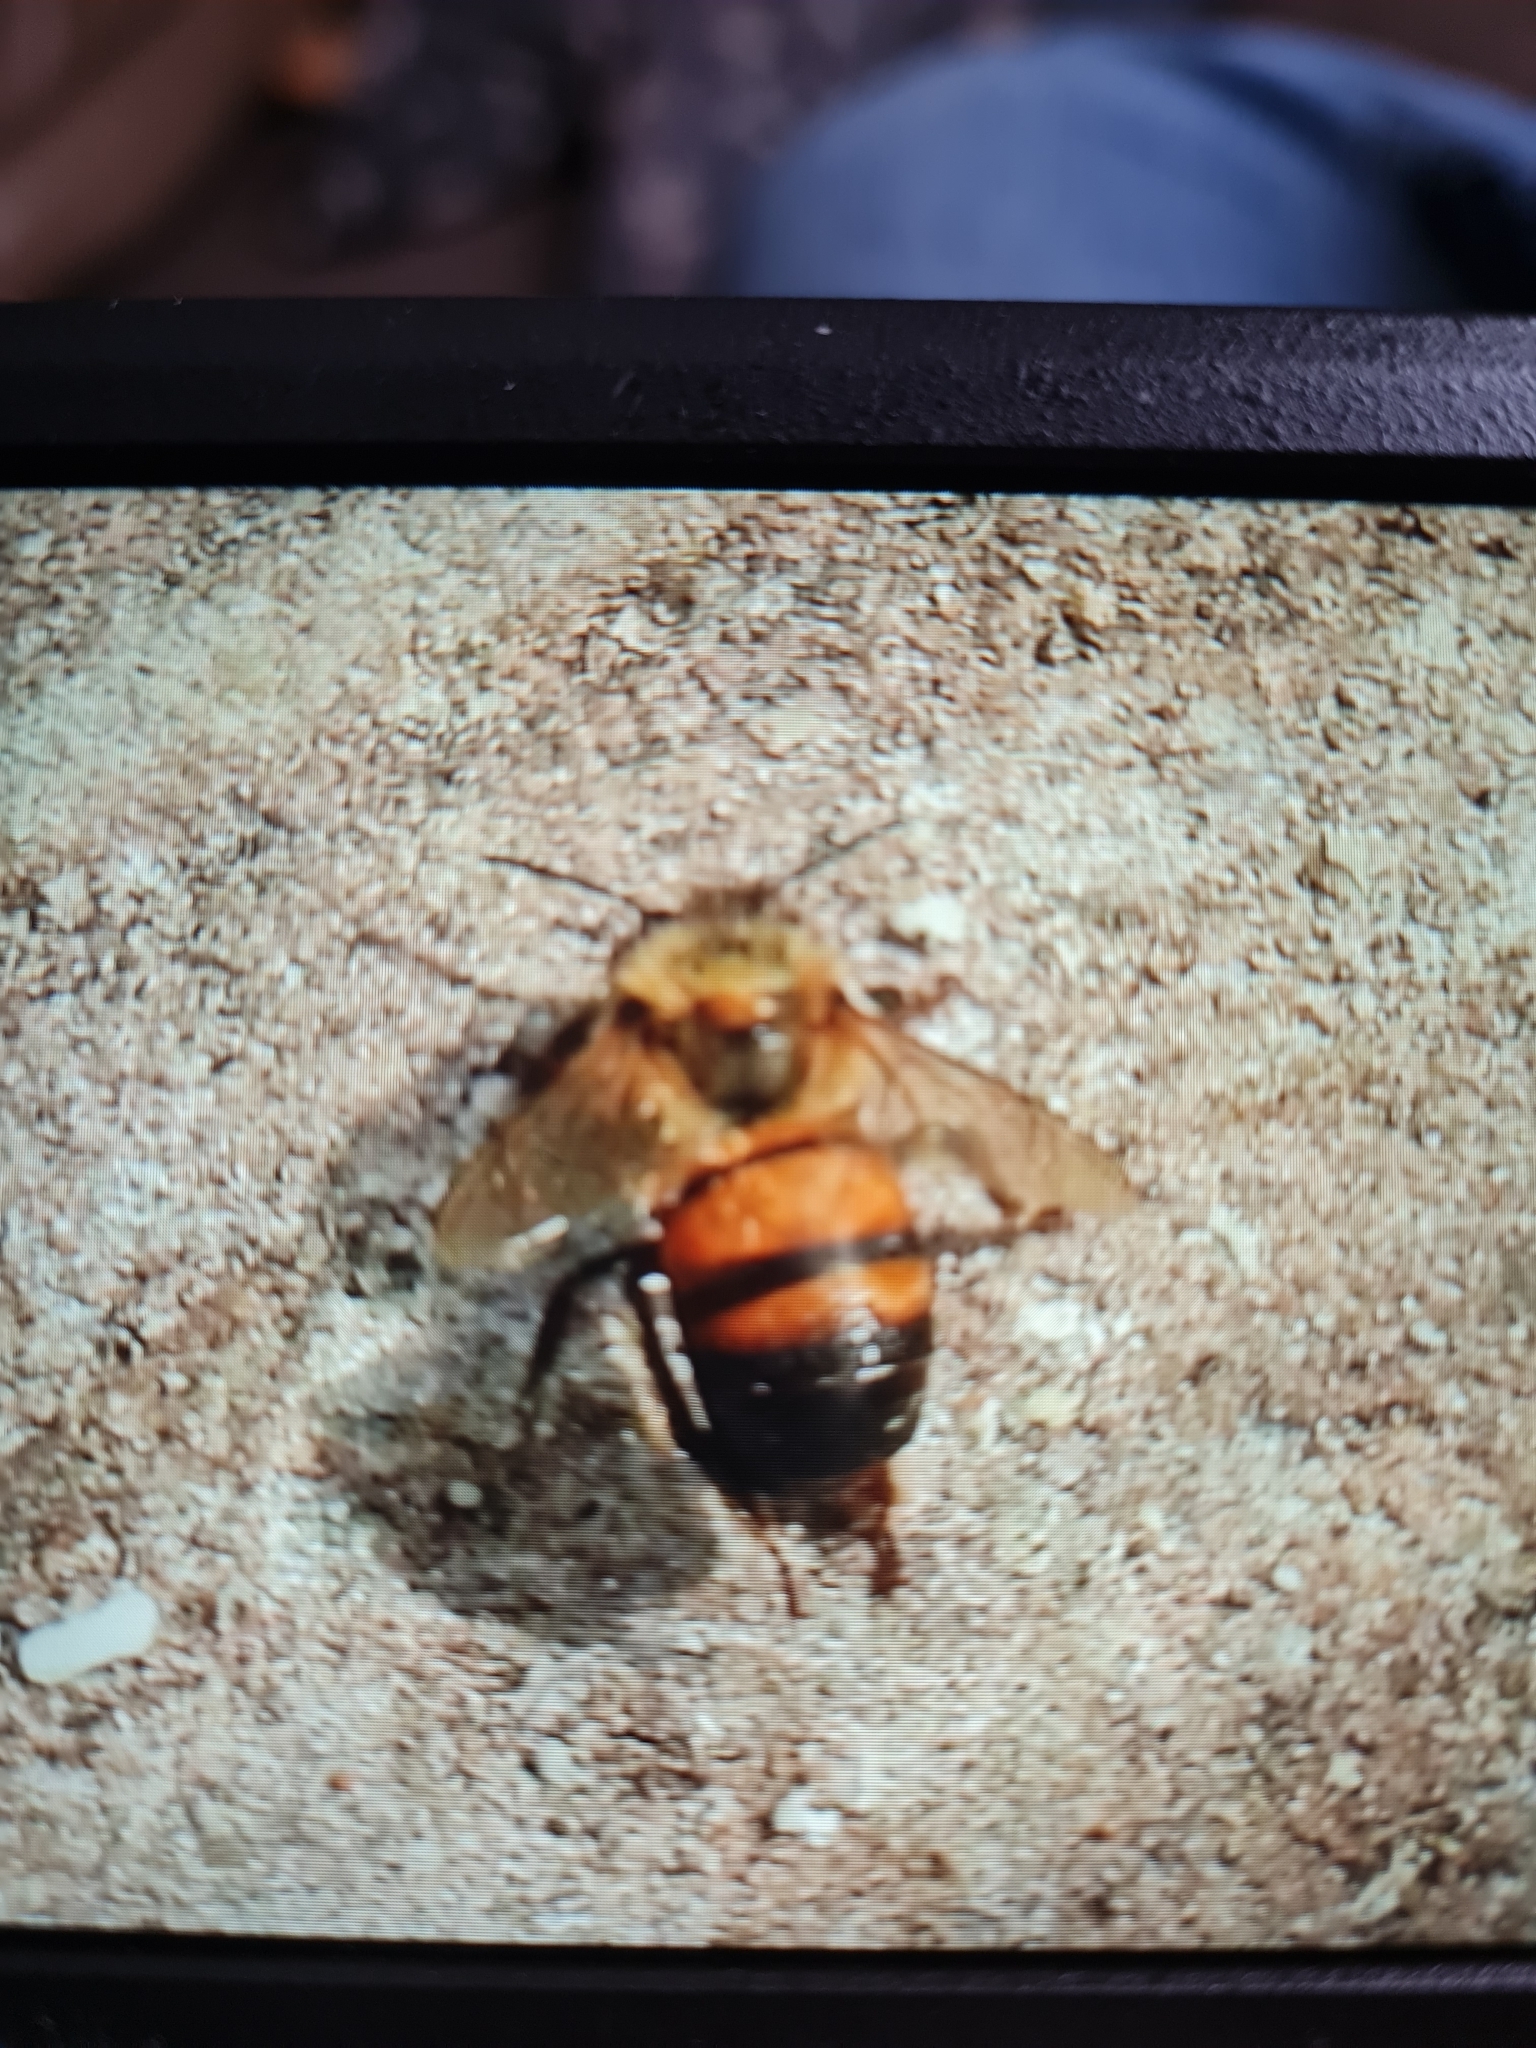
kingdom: Animalia
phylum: Arthropoda
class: Insecta
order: Hymenoptera
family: Apidae
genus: Apis
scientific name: Apis mellifera
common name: Honey bee
